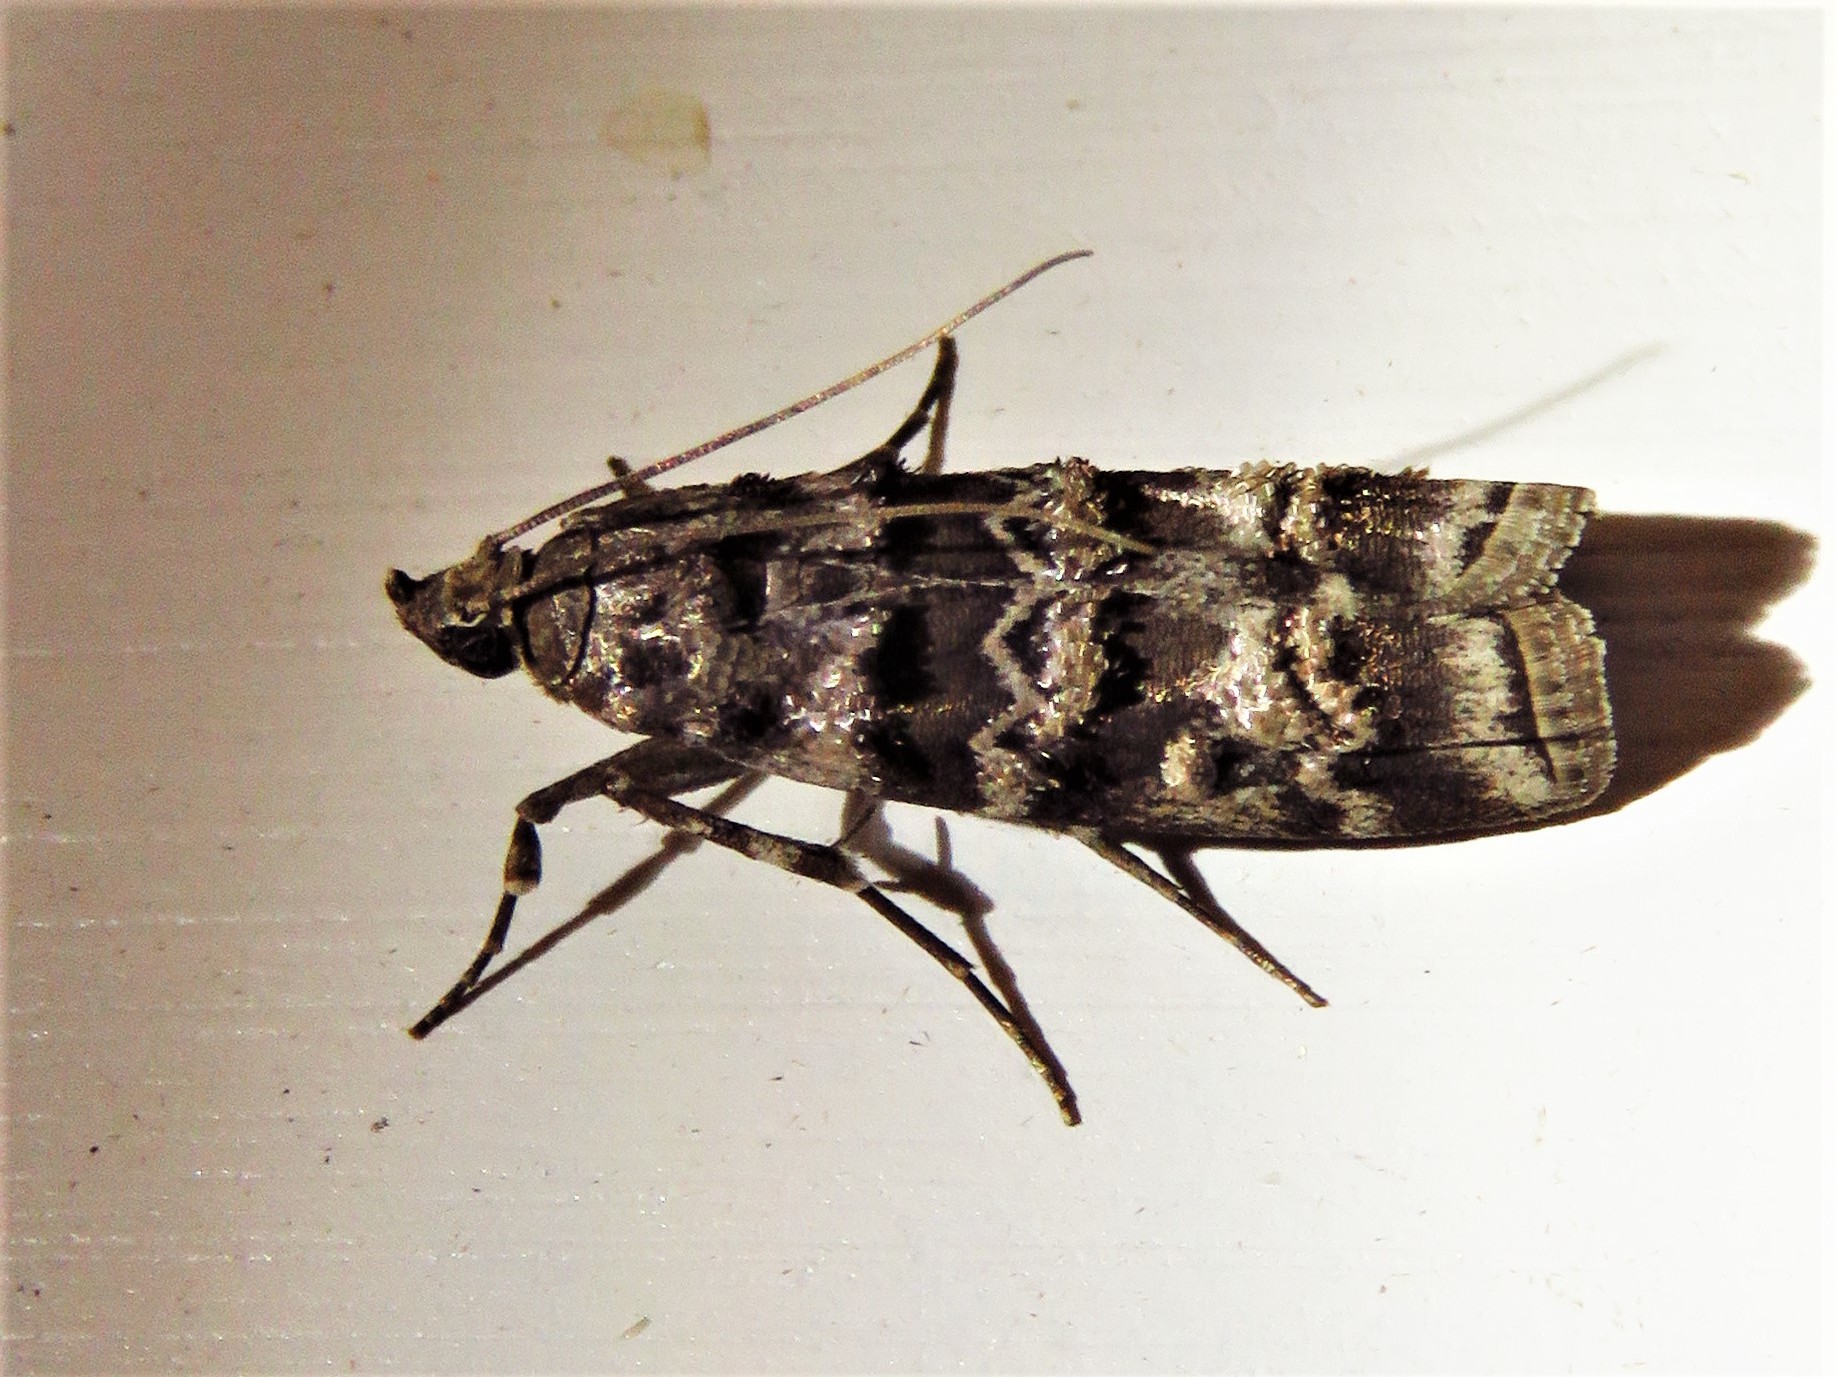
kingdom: Animalia
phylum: Arthropoda
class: Insecta
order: Lepidoptera
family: Pyralidae
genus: Dioryctria
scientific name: Dioryctria amatella
